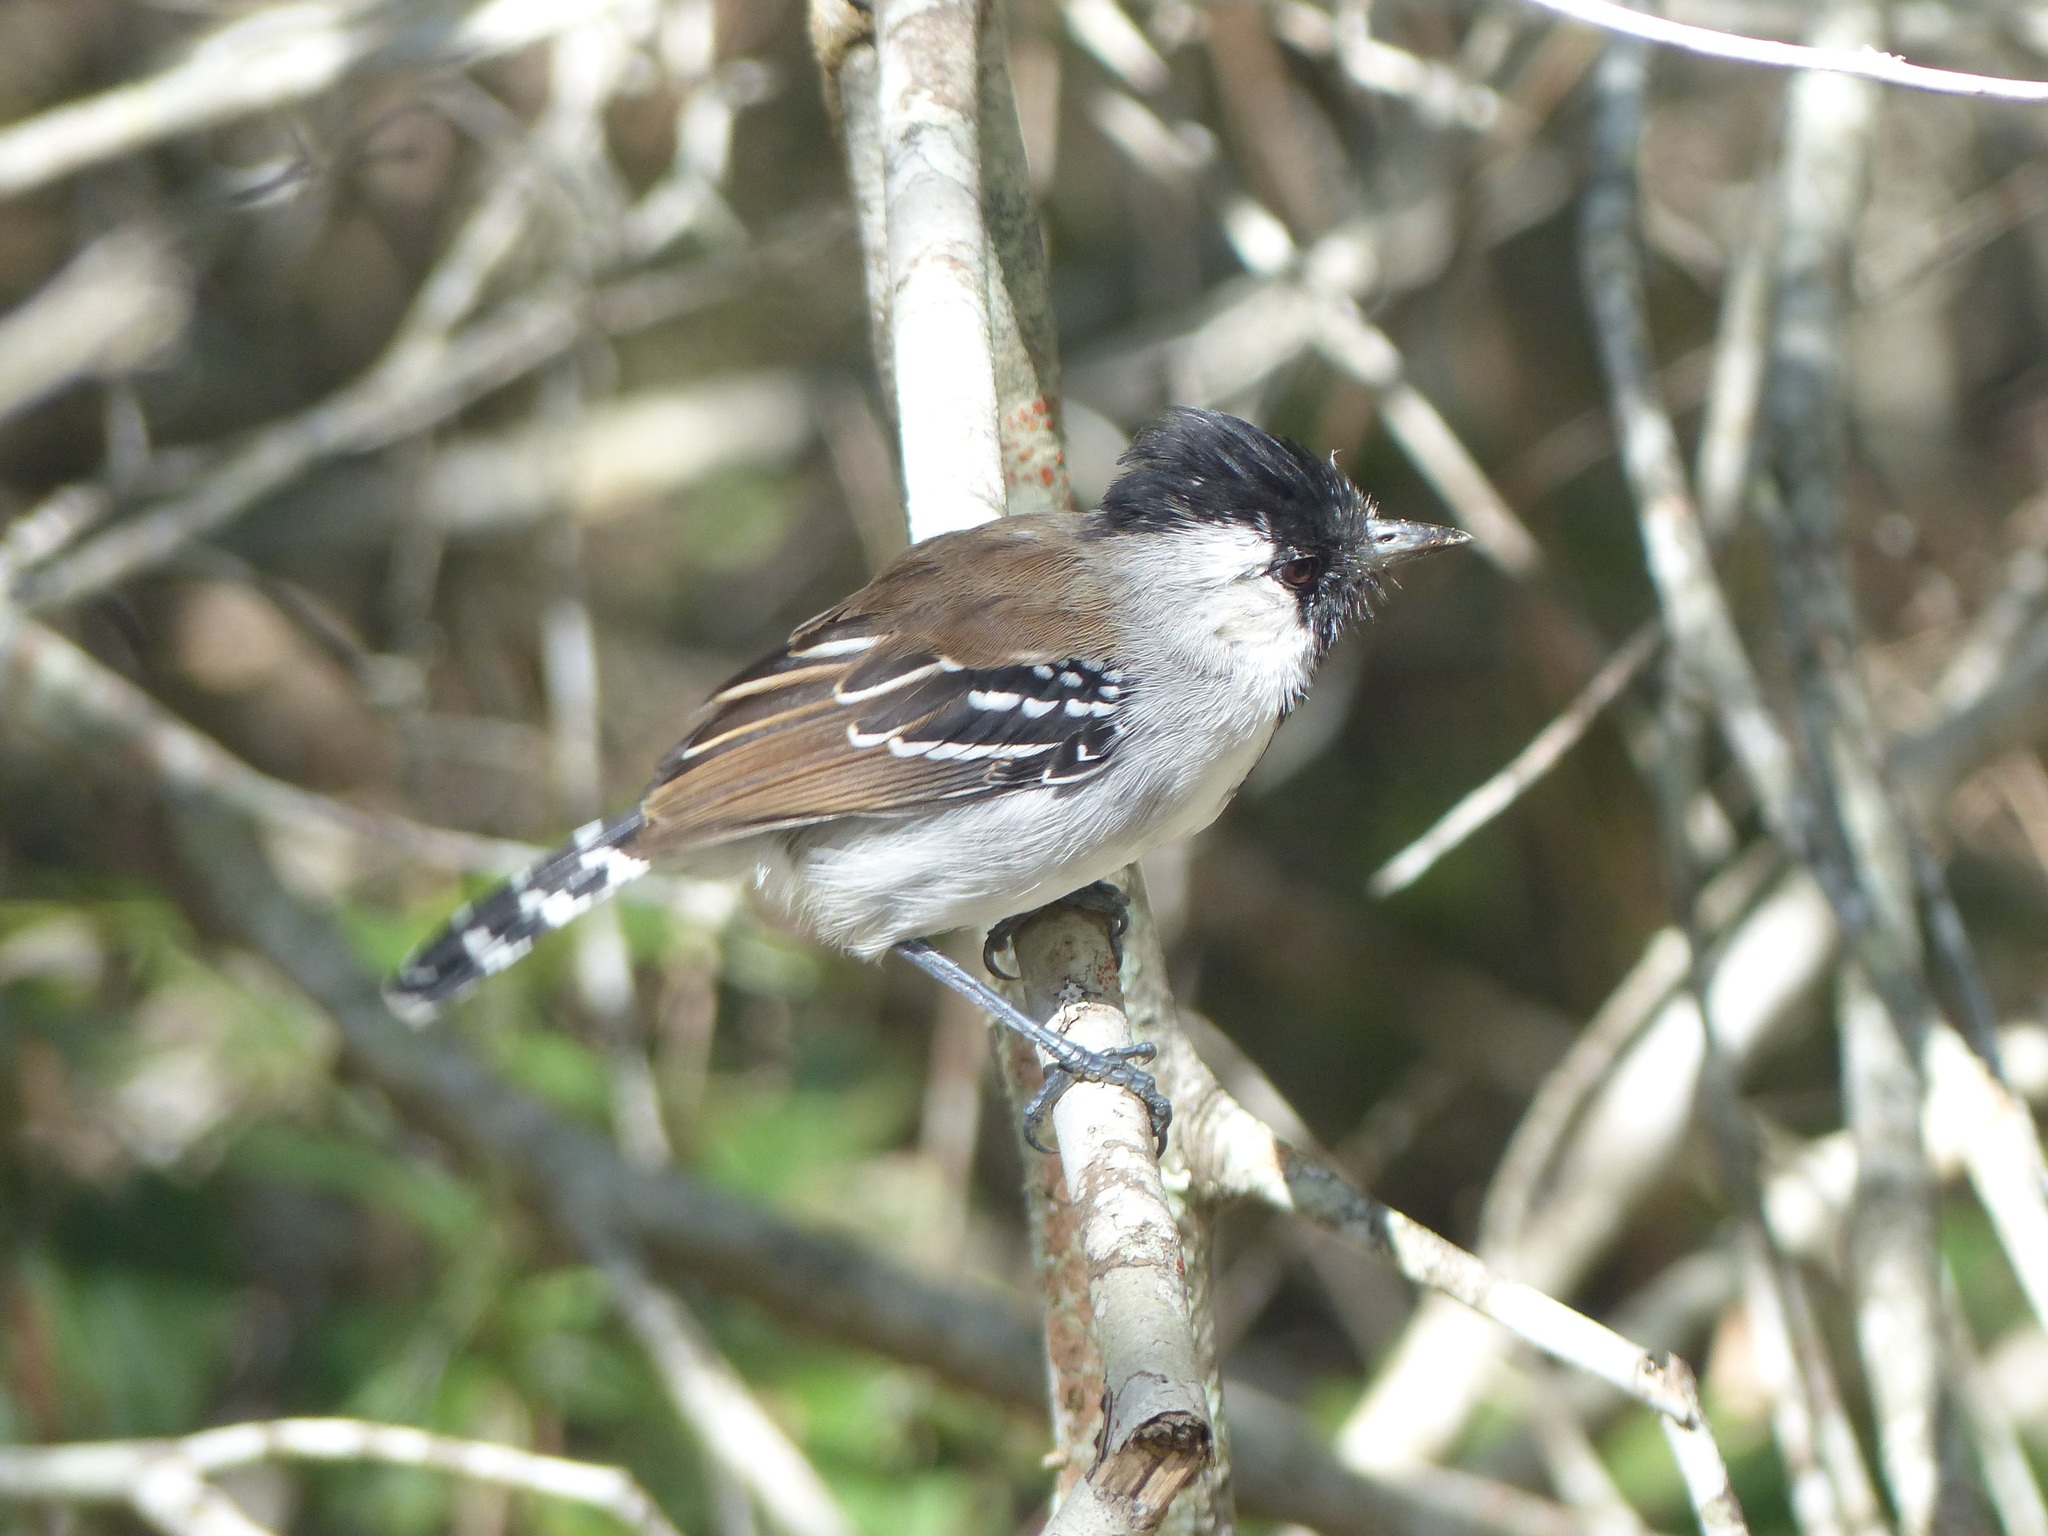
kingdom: Animalia
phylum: Chordata
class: Aves
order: Passeriformes
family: Thamnophilidae
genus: Sakesphorus
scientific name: Sakesphorus cristatus
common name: Silvery-cheeked antshrike
